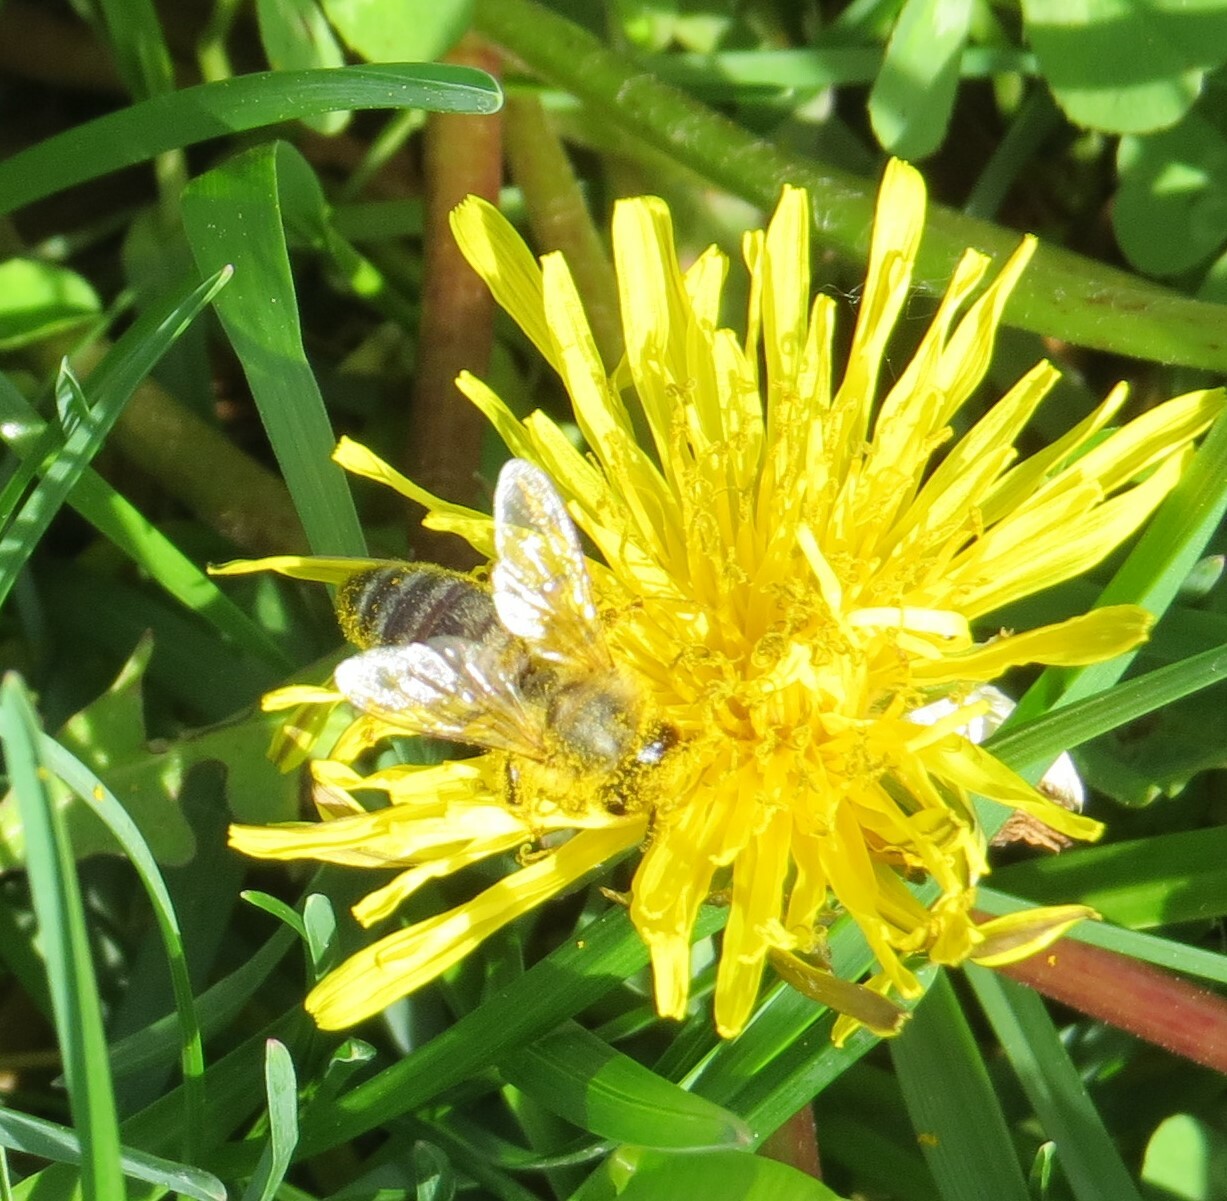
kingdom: Animalia
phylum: Arthropoda
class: Insecta
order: Hymenoptera
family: Apidae
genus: Apis
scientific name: Apis mellifera
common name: Honey bee
